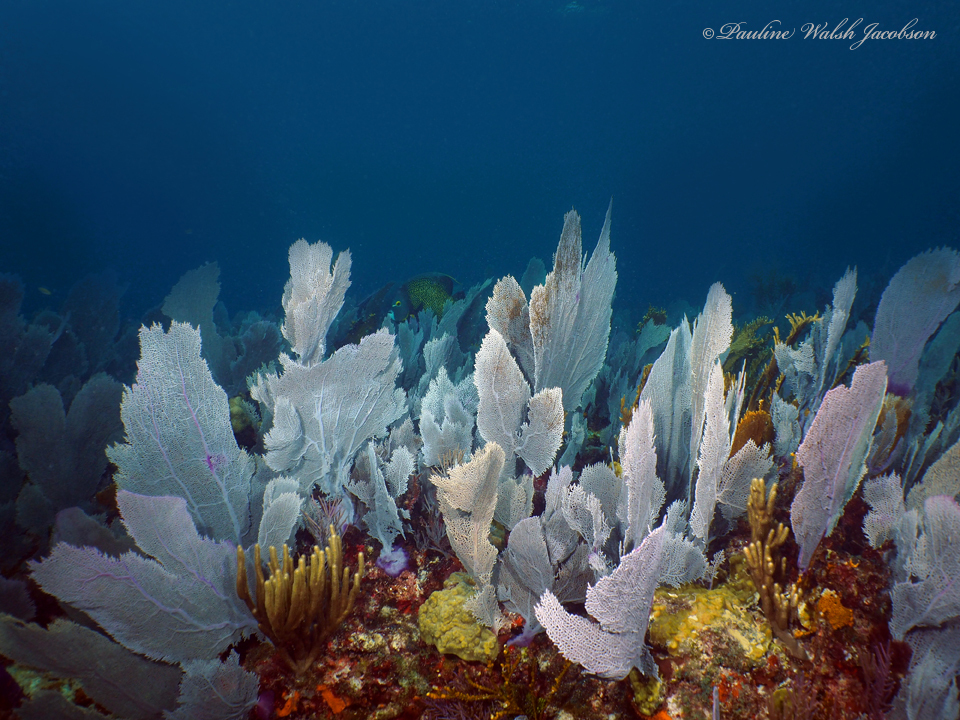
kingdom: Animalia
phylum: Cnidaria
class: Anthozoa
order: Malacalcyonacea
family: Gorgoniidae
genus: Gorgonia
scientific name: Gorgonia ventalina
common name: Common sea fan
